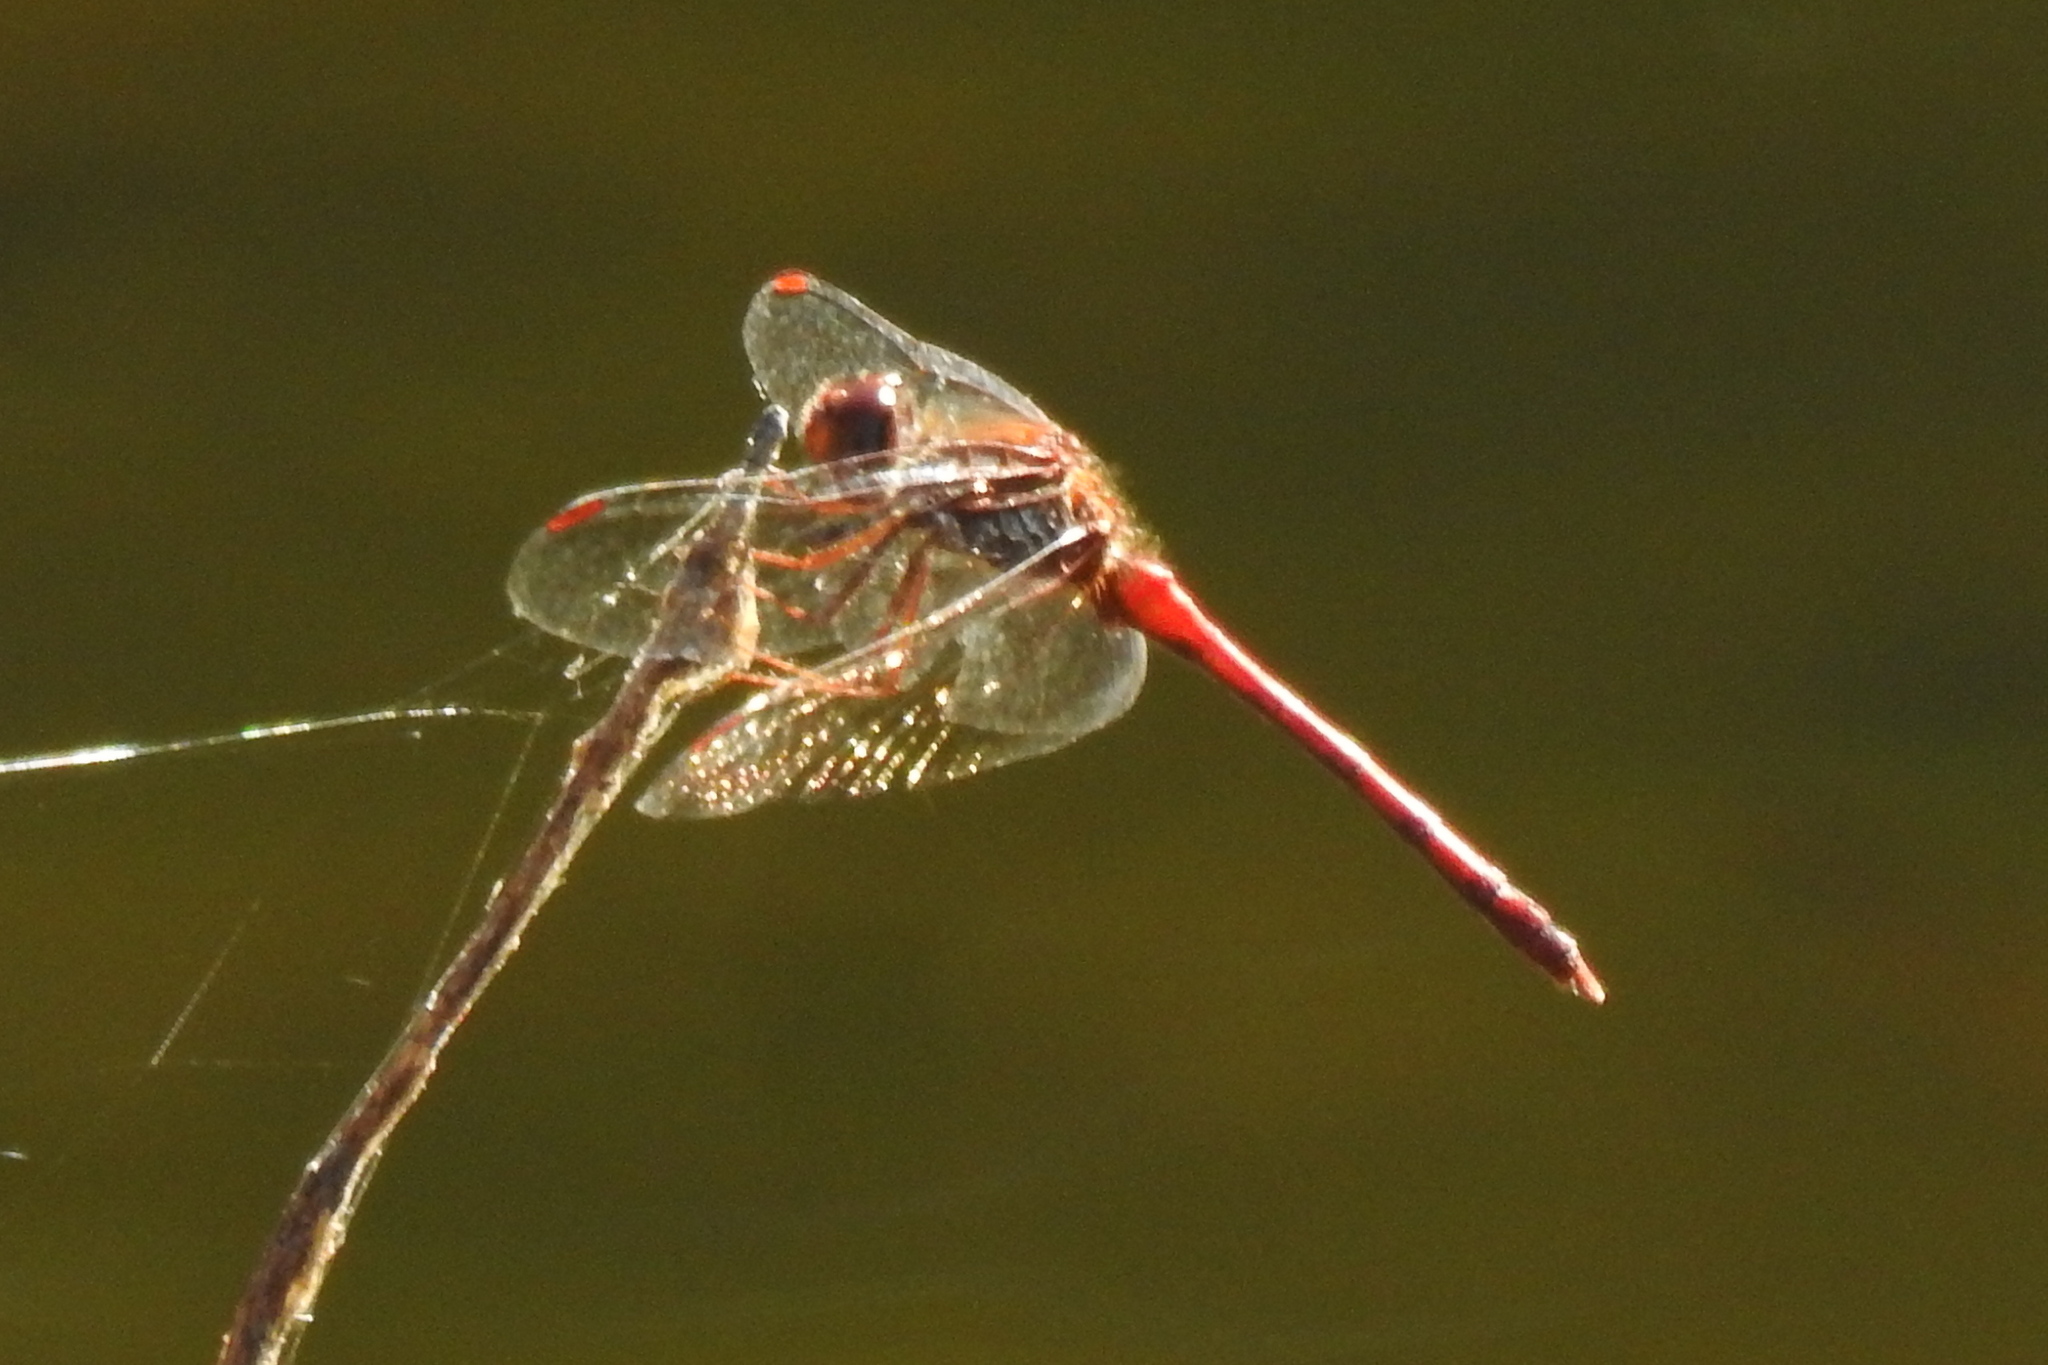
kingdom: Animalia
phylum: Arthropoda
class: Insecta
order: Odonata
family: Libellulidae
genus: Sympetrum
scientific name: Sympetrum vicinum
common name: Autumn meadowhawk
